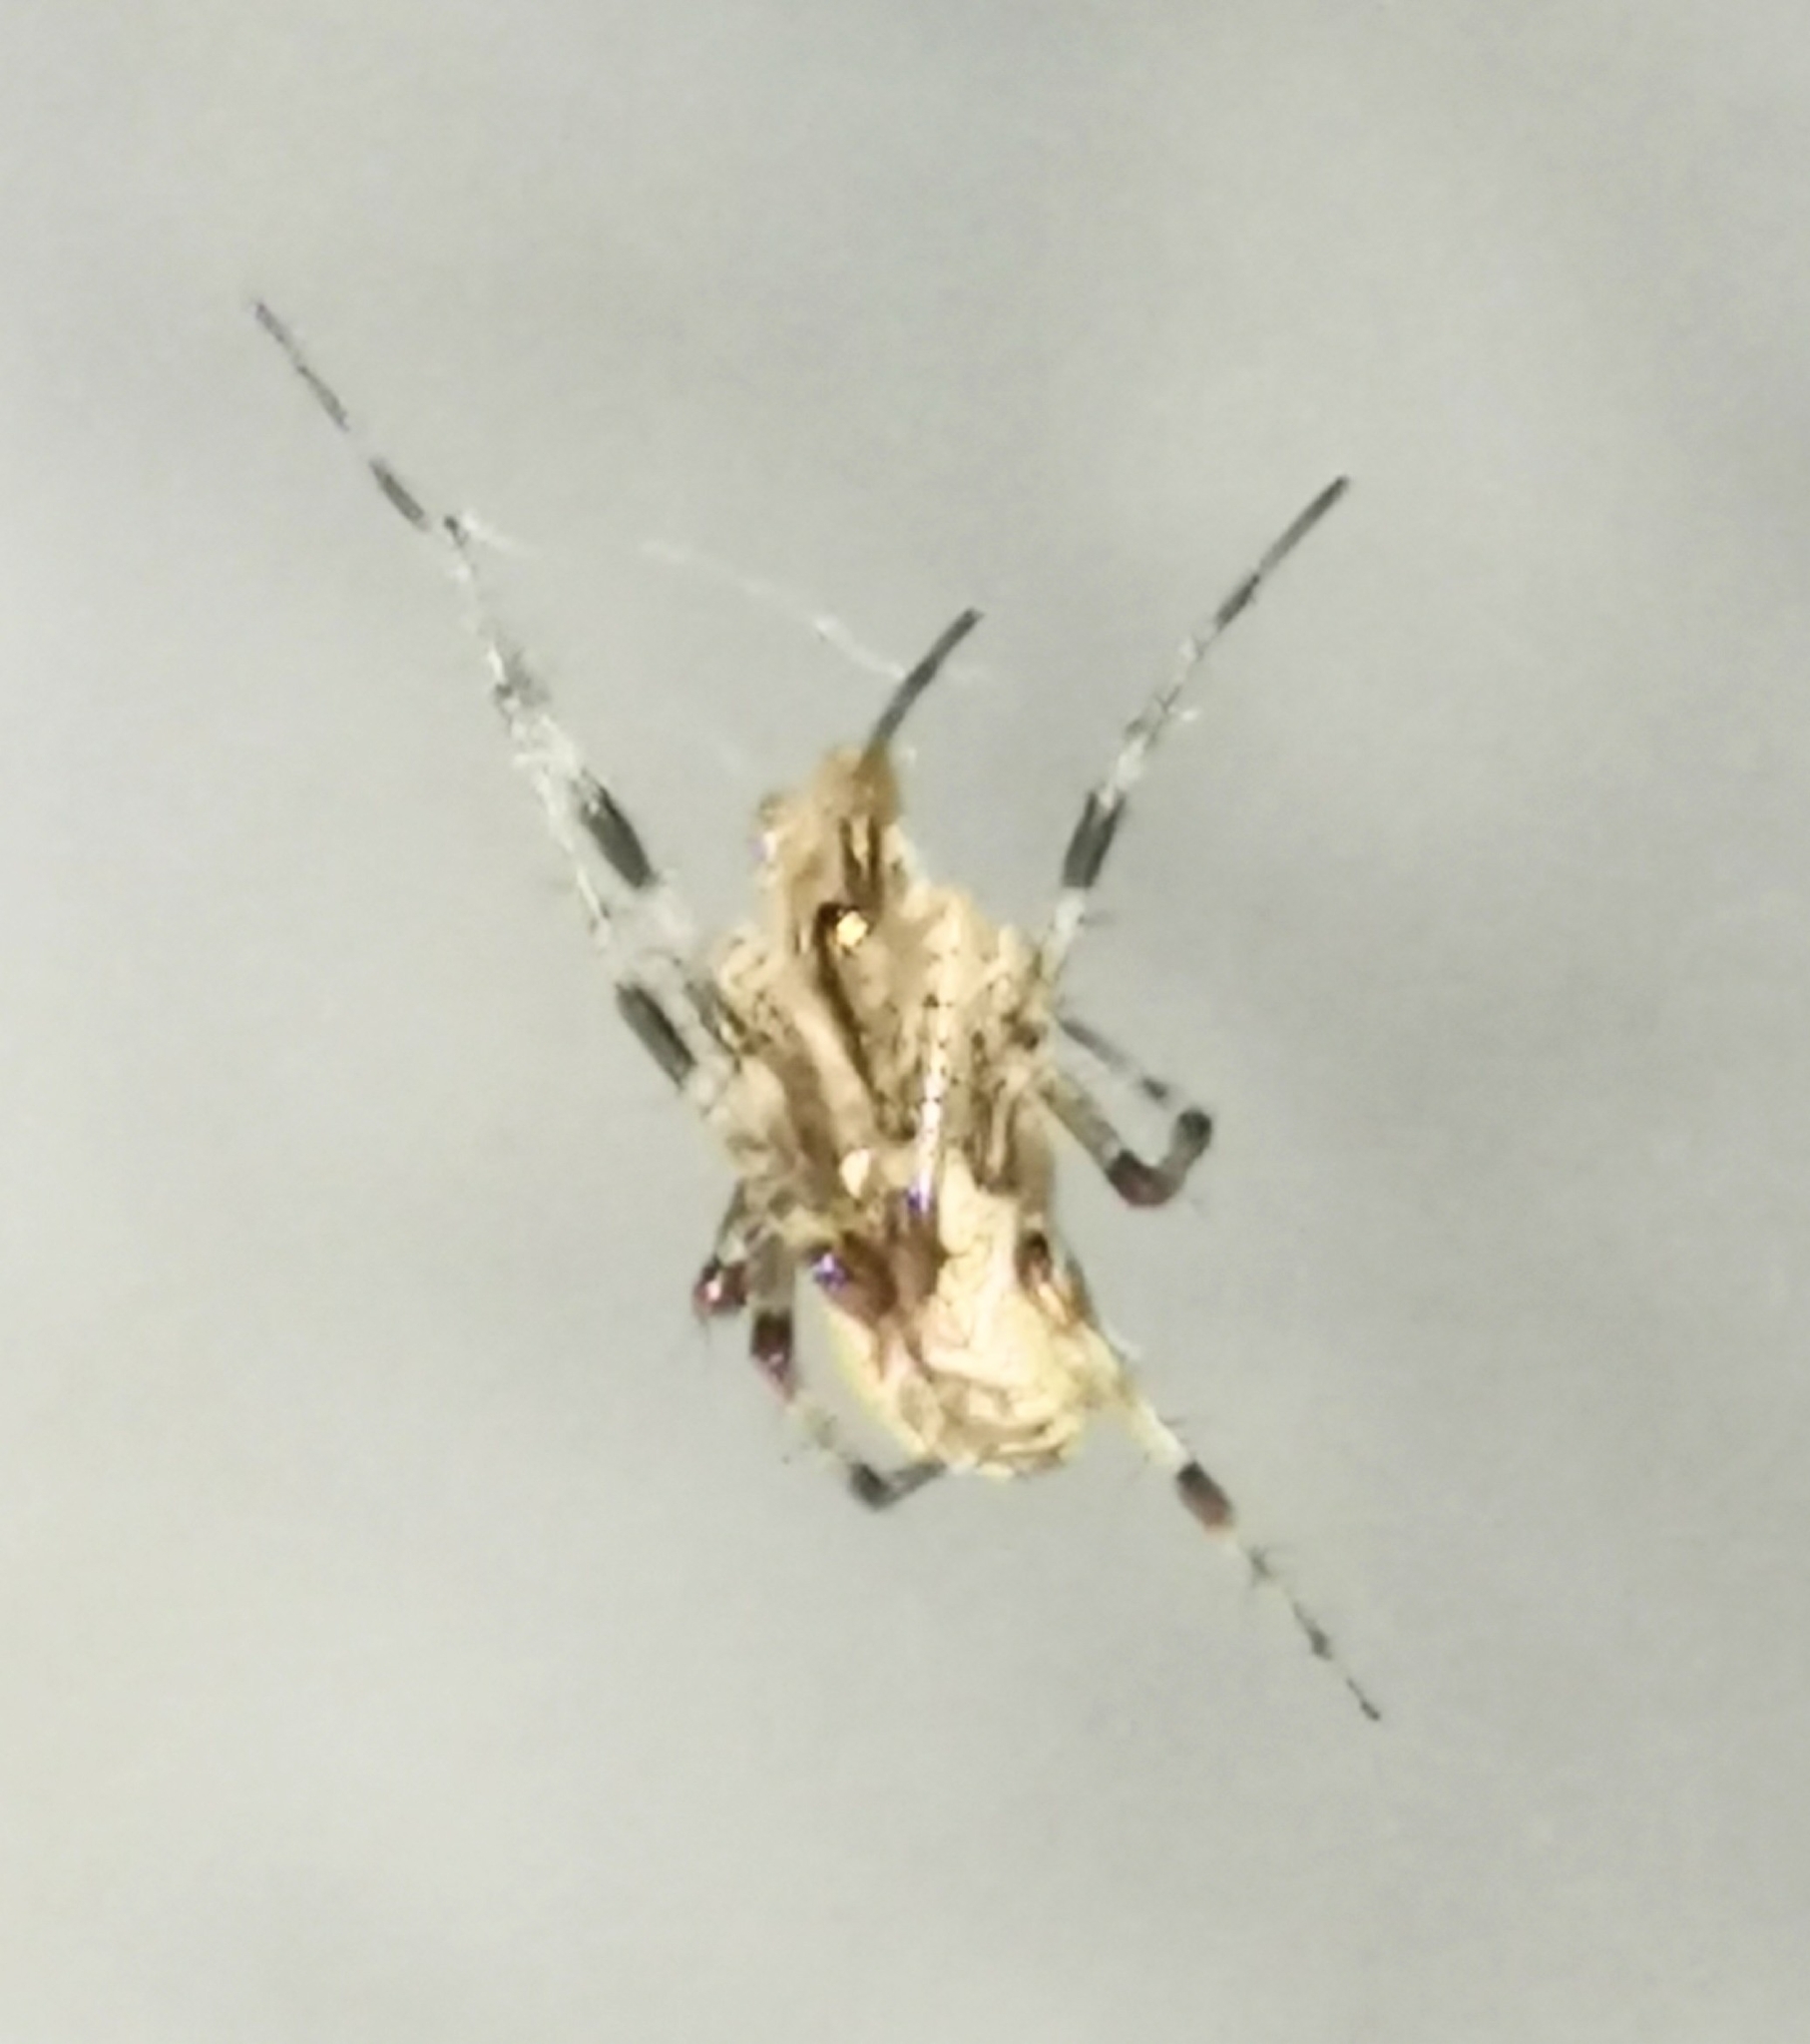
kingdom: Animalia
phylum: Arthropoda
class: Arachnida
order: Araneae
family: Linyphiidae
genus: Pityohyphantes
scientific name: Pityohyphantes phrygianus
